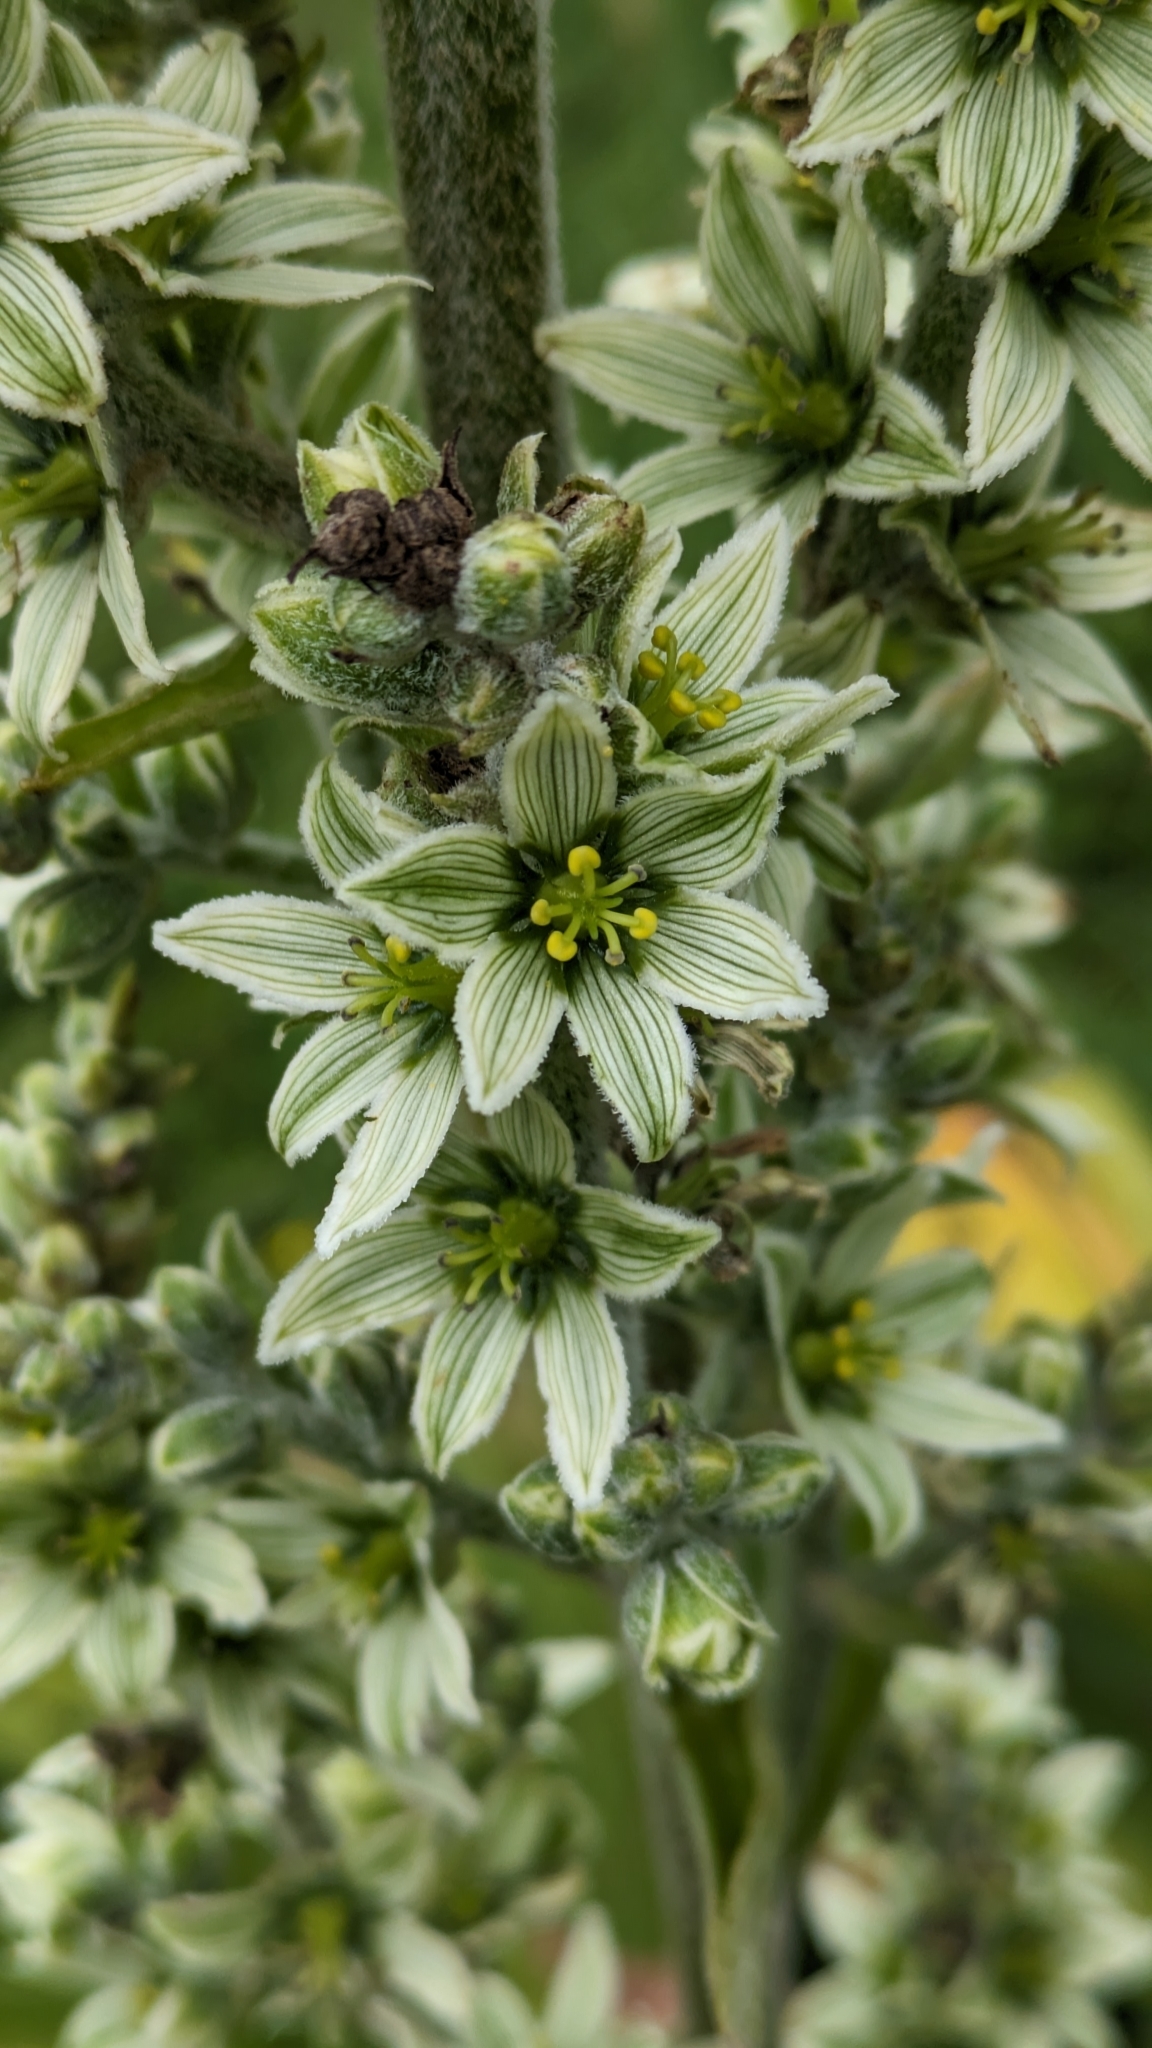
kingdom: Plantae
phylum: Tracheophyta
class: Liliopsida
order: Liliales
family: Melanthiaceae
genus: Veratrum
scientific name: Veratrum album
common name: White veratrum
